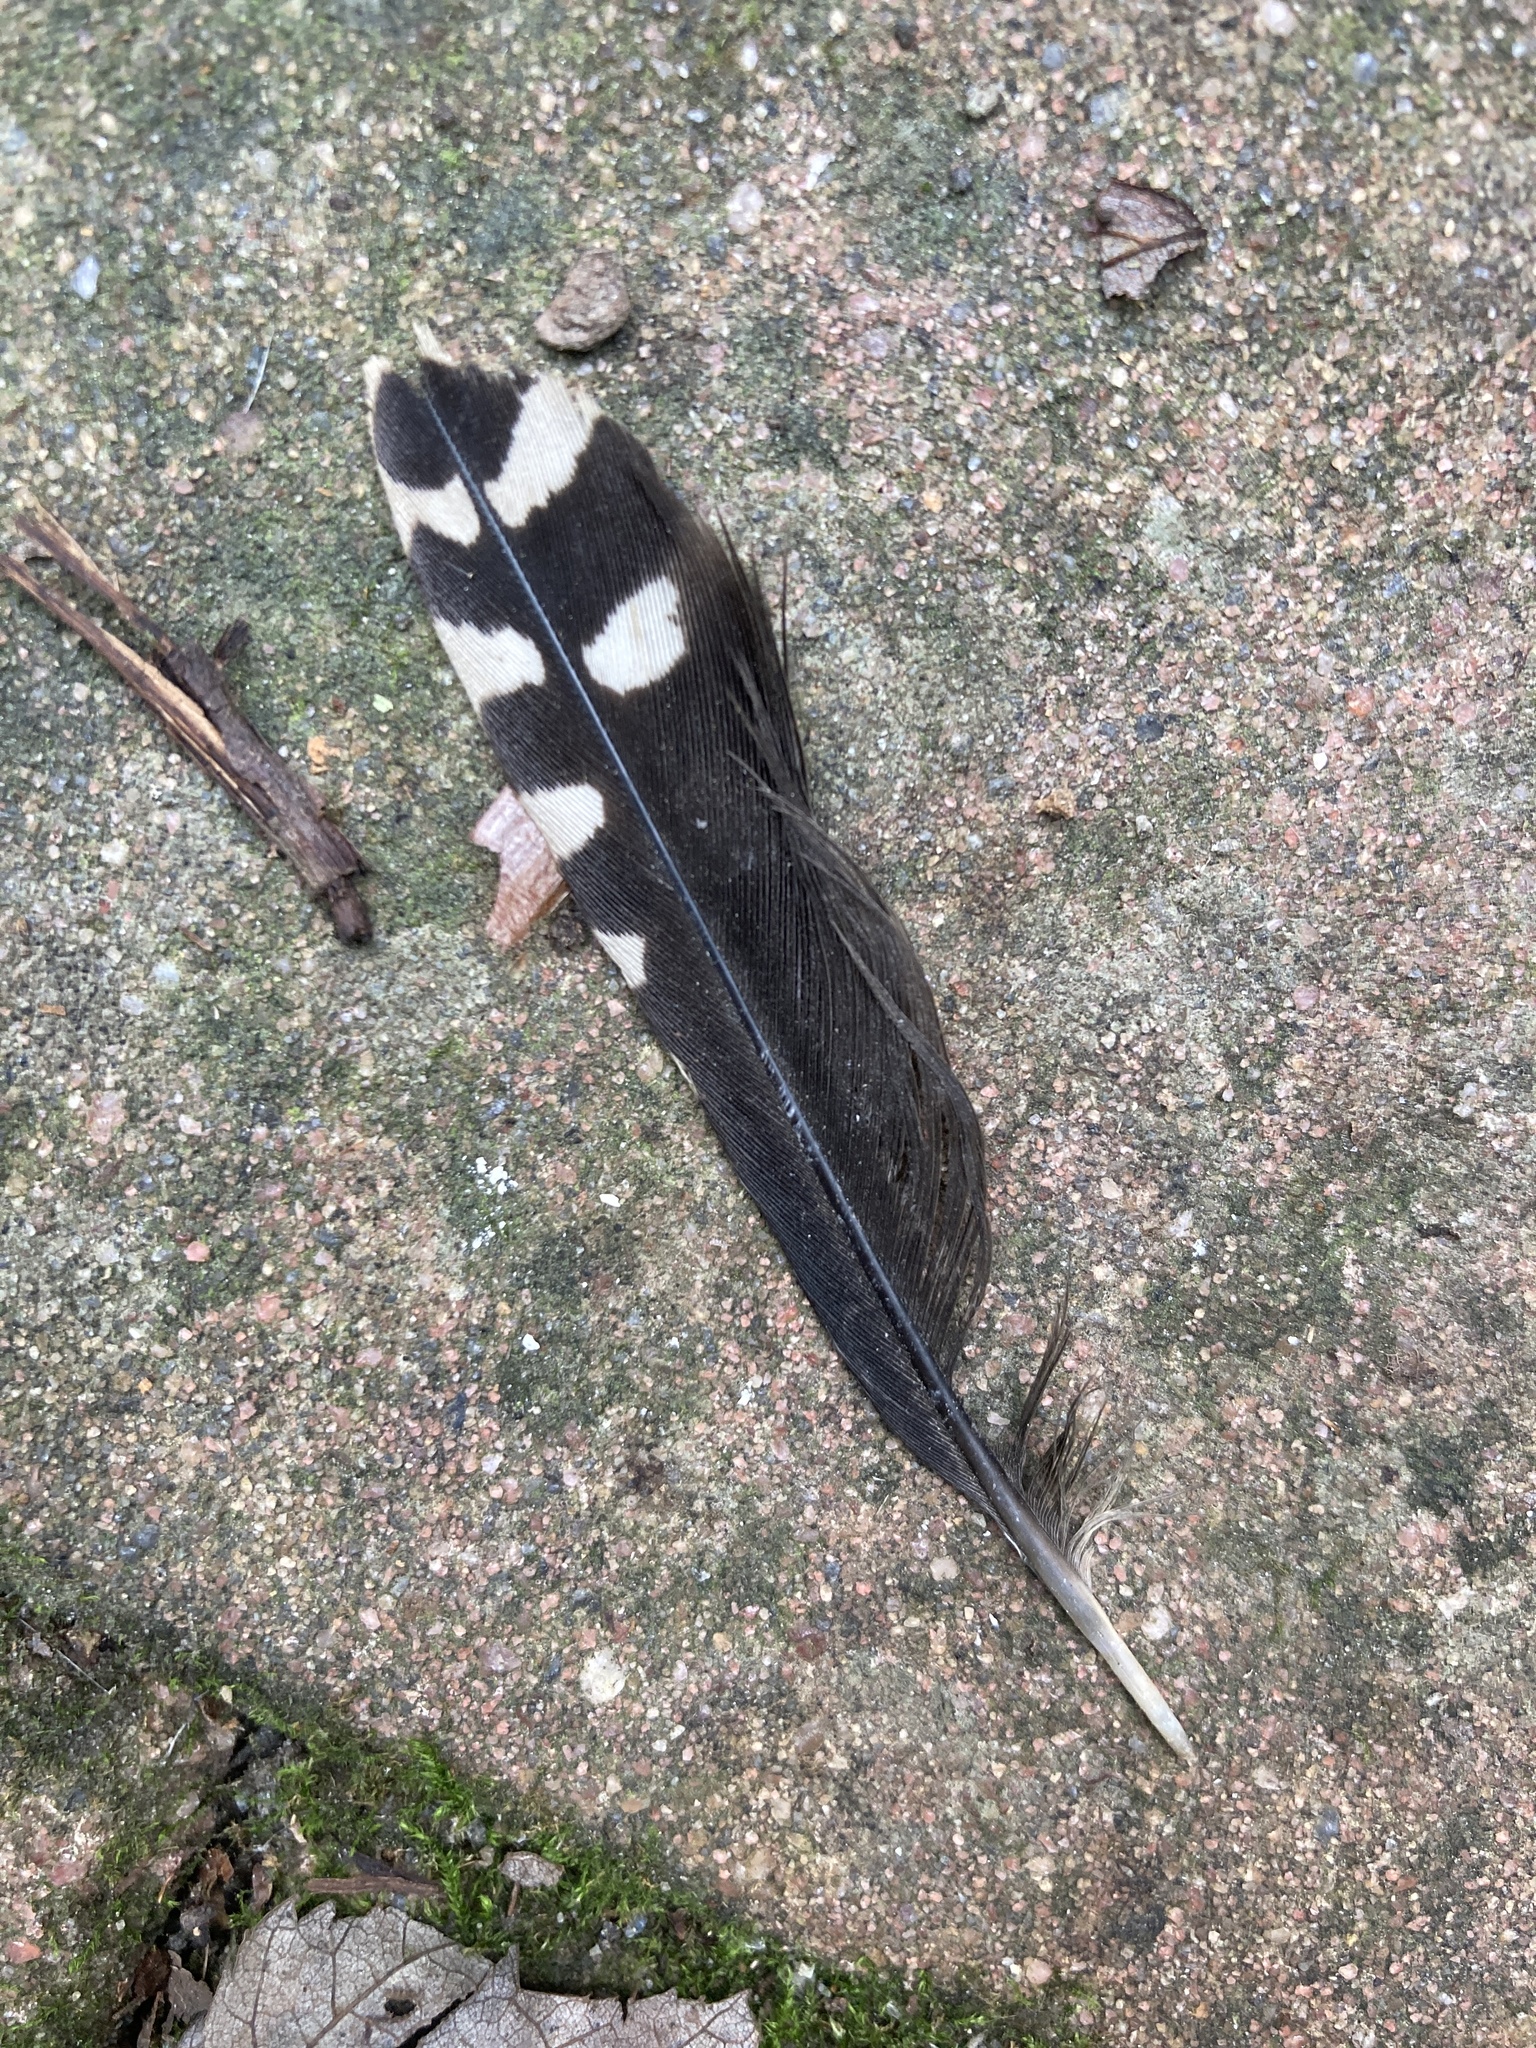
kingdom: Animalia
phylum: Chordata
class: Aves
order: Piciformes
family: Picidae
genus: Melanerpes
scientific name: Melanerpes carolinus
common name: Red-bellied woodpecker
